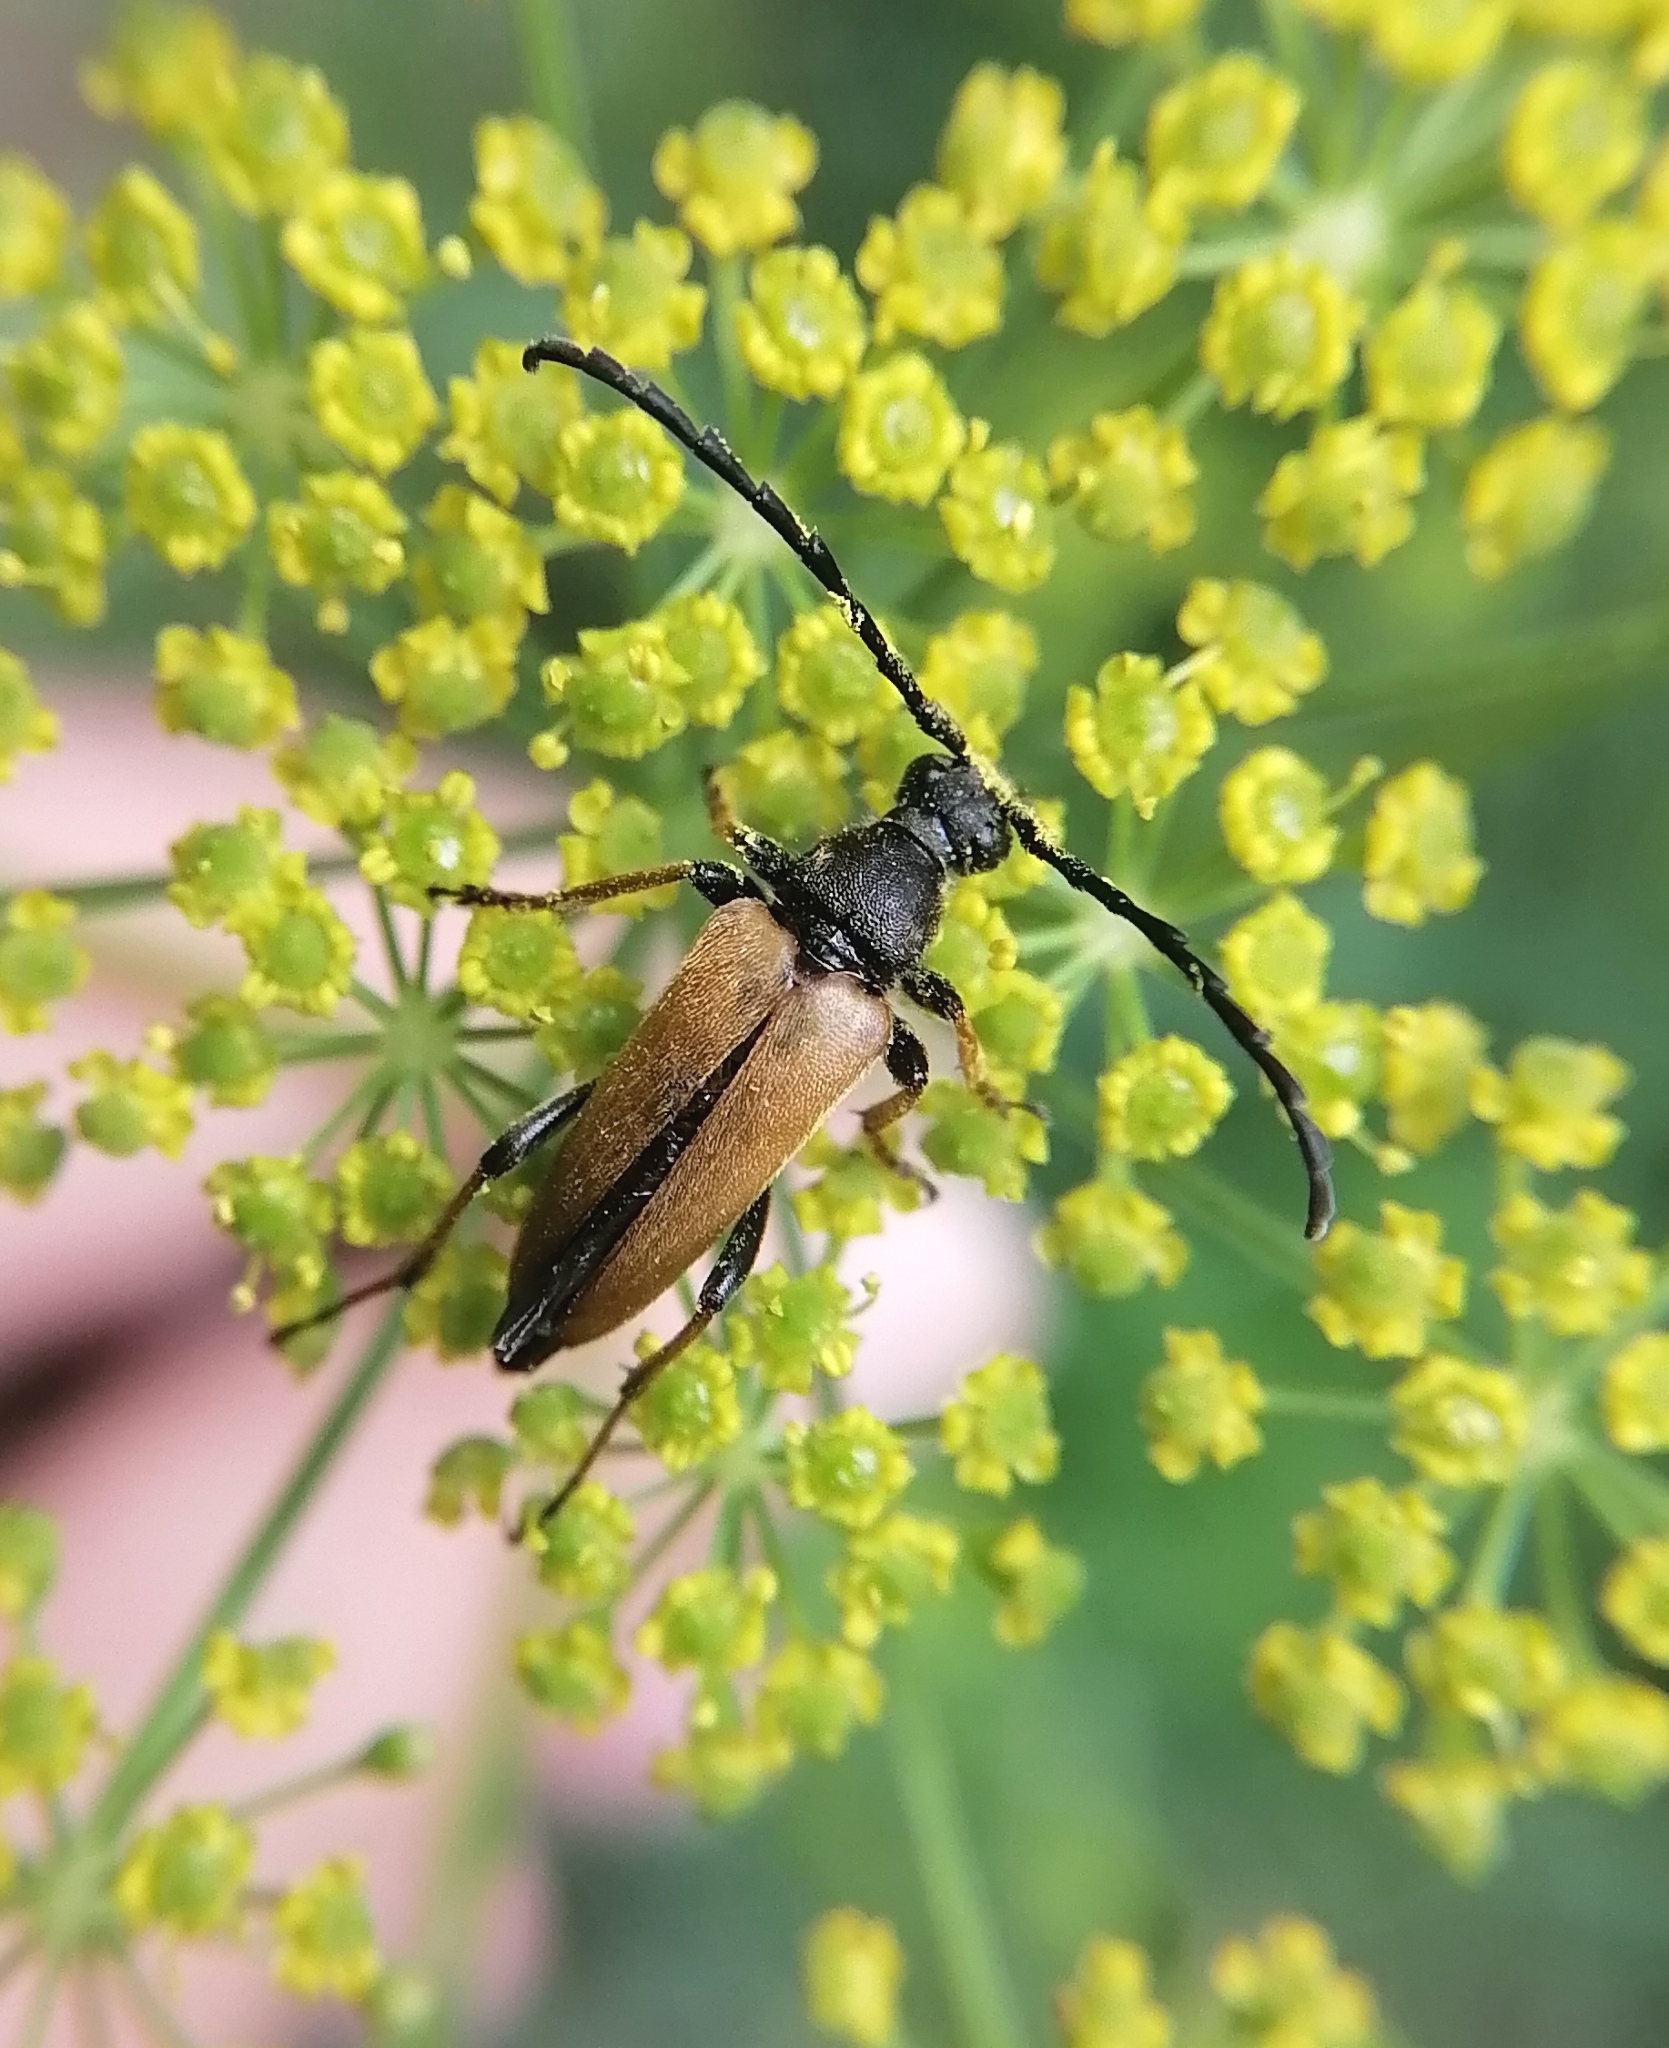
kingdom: Animalia
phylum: Arthropoda
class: Insecta
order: Coleoptera
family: Cerambycidae
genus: Stictoleptura
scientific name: Stictoleptura rubra
